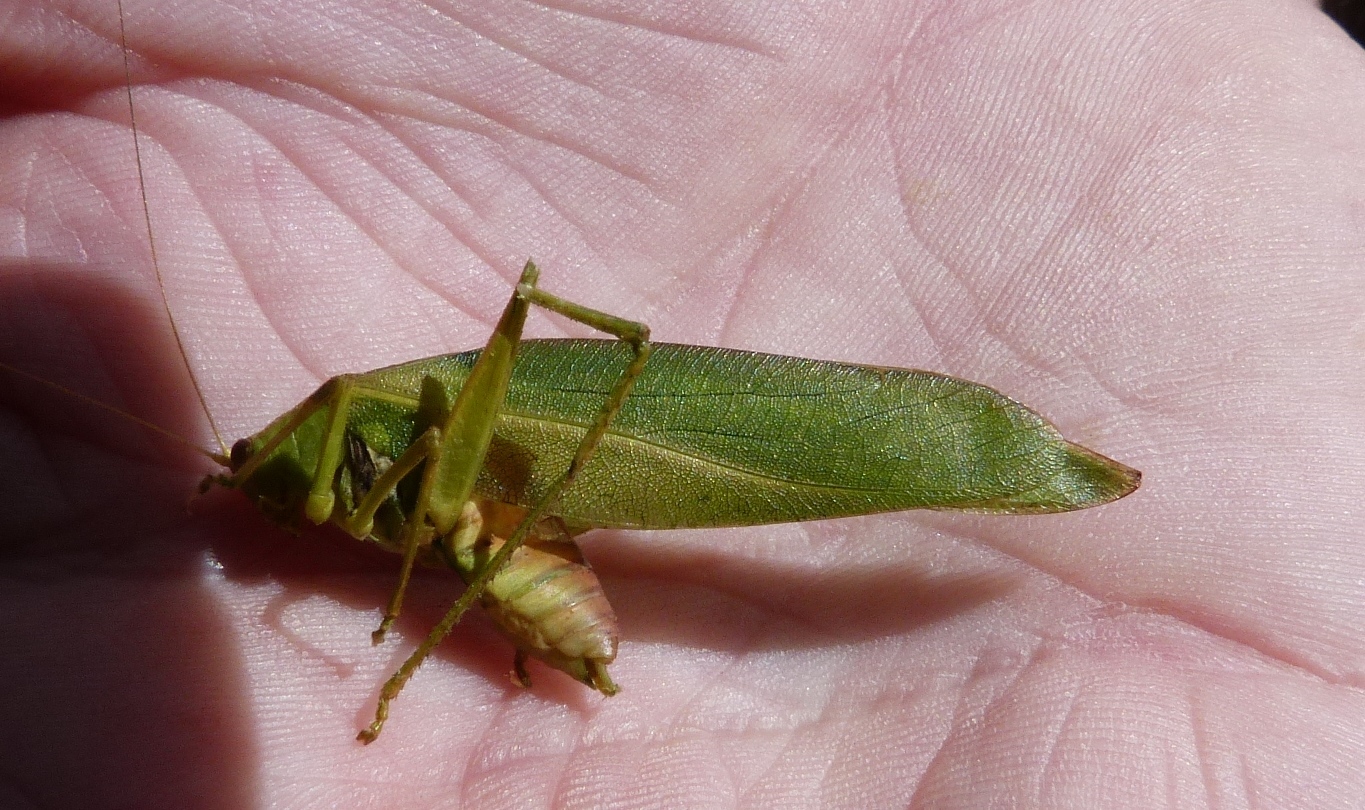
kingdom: Animalia
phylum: Arthropoda
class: Insecta
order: Orthoptera
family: Tettigoniidae
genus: Caedicia
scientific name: Caedicia simplex
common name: Common garden katydid
